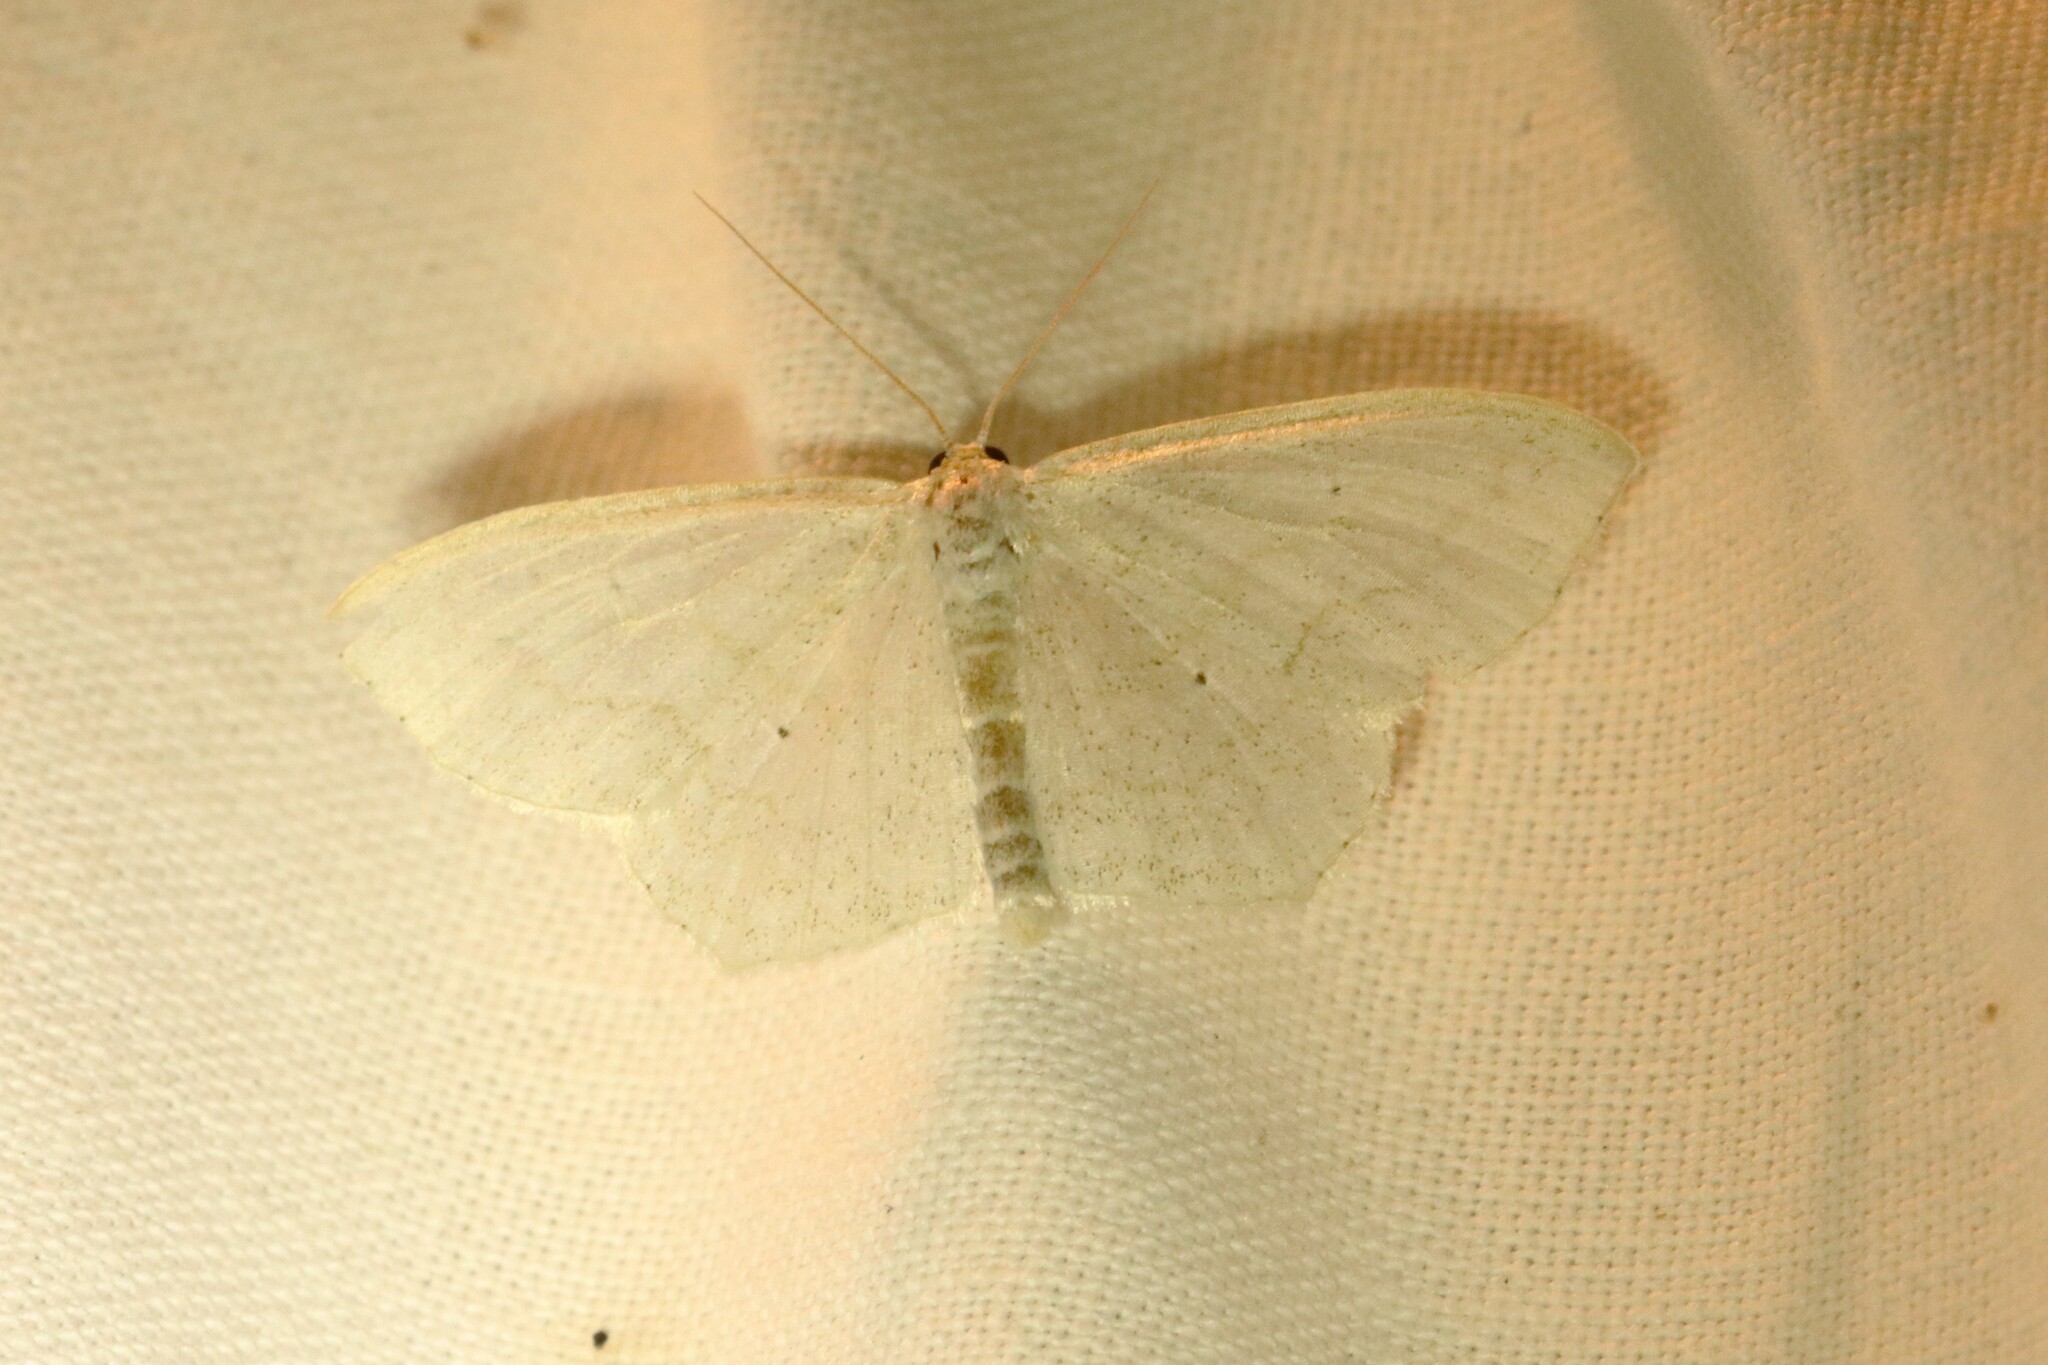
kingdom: Animalia
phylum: Arthropoda
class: Insecta
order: Lepidoptera
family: Geometridae
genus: Scopula
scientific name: Scopula limboundata
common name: Large lace border
